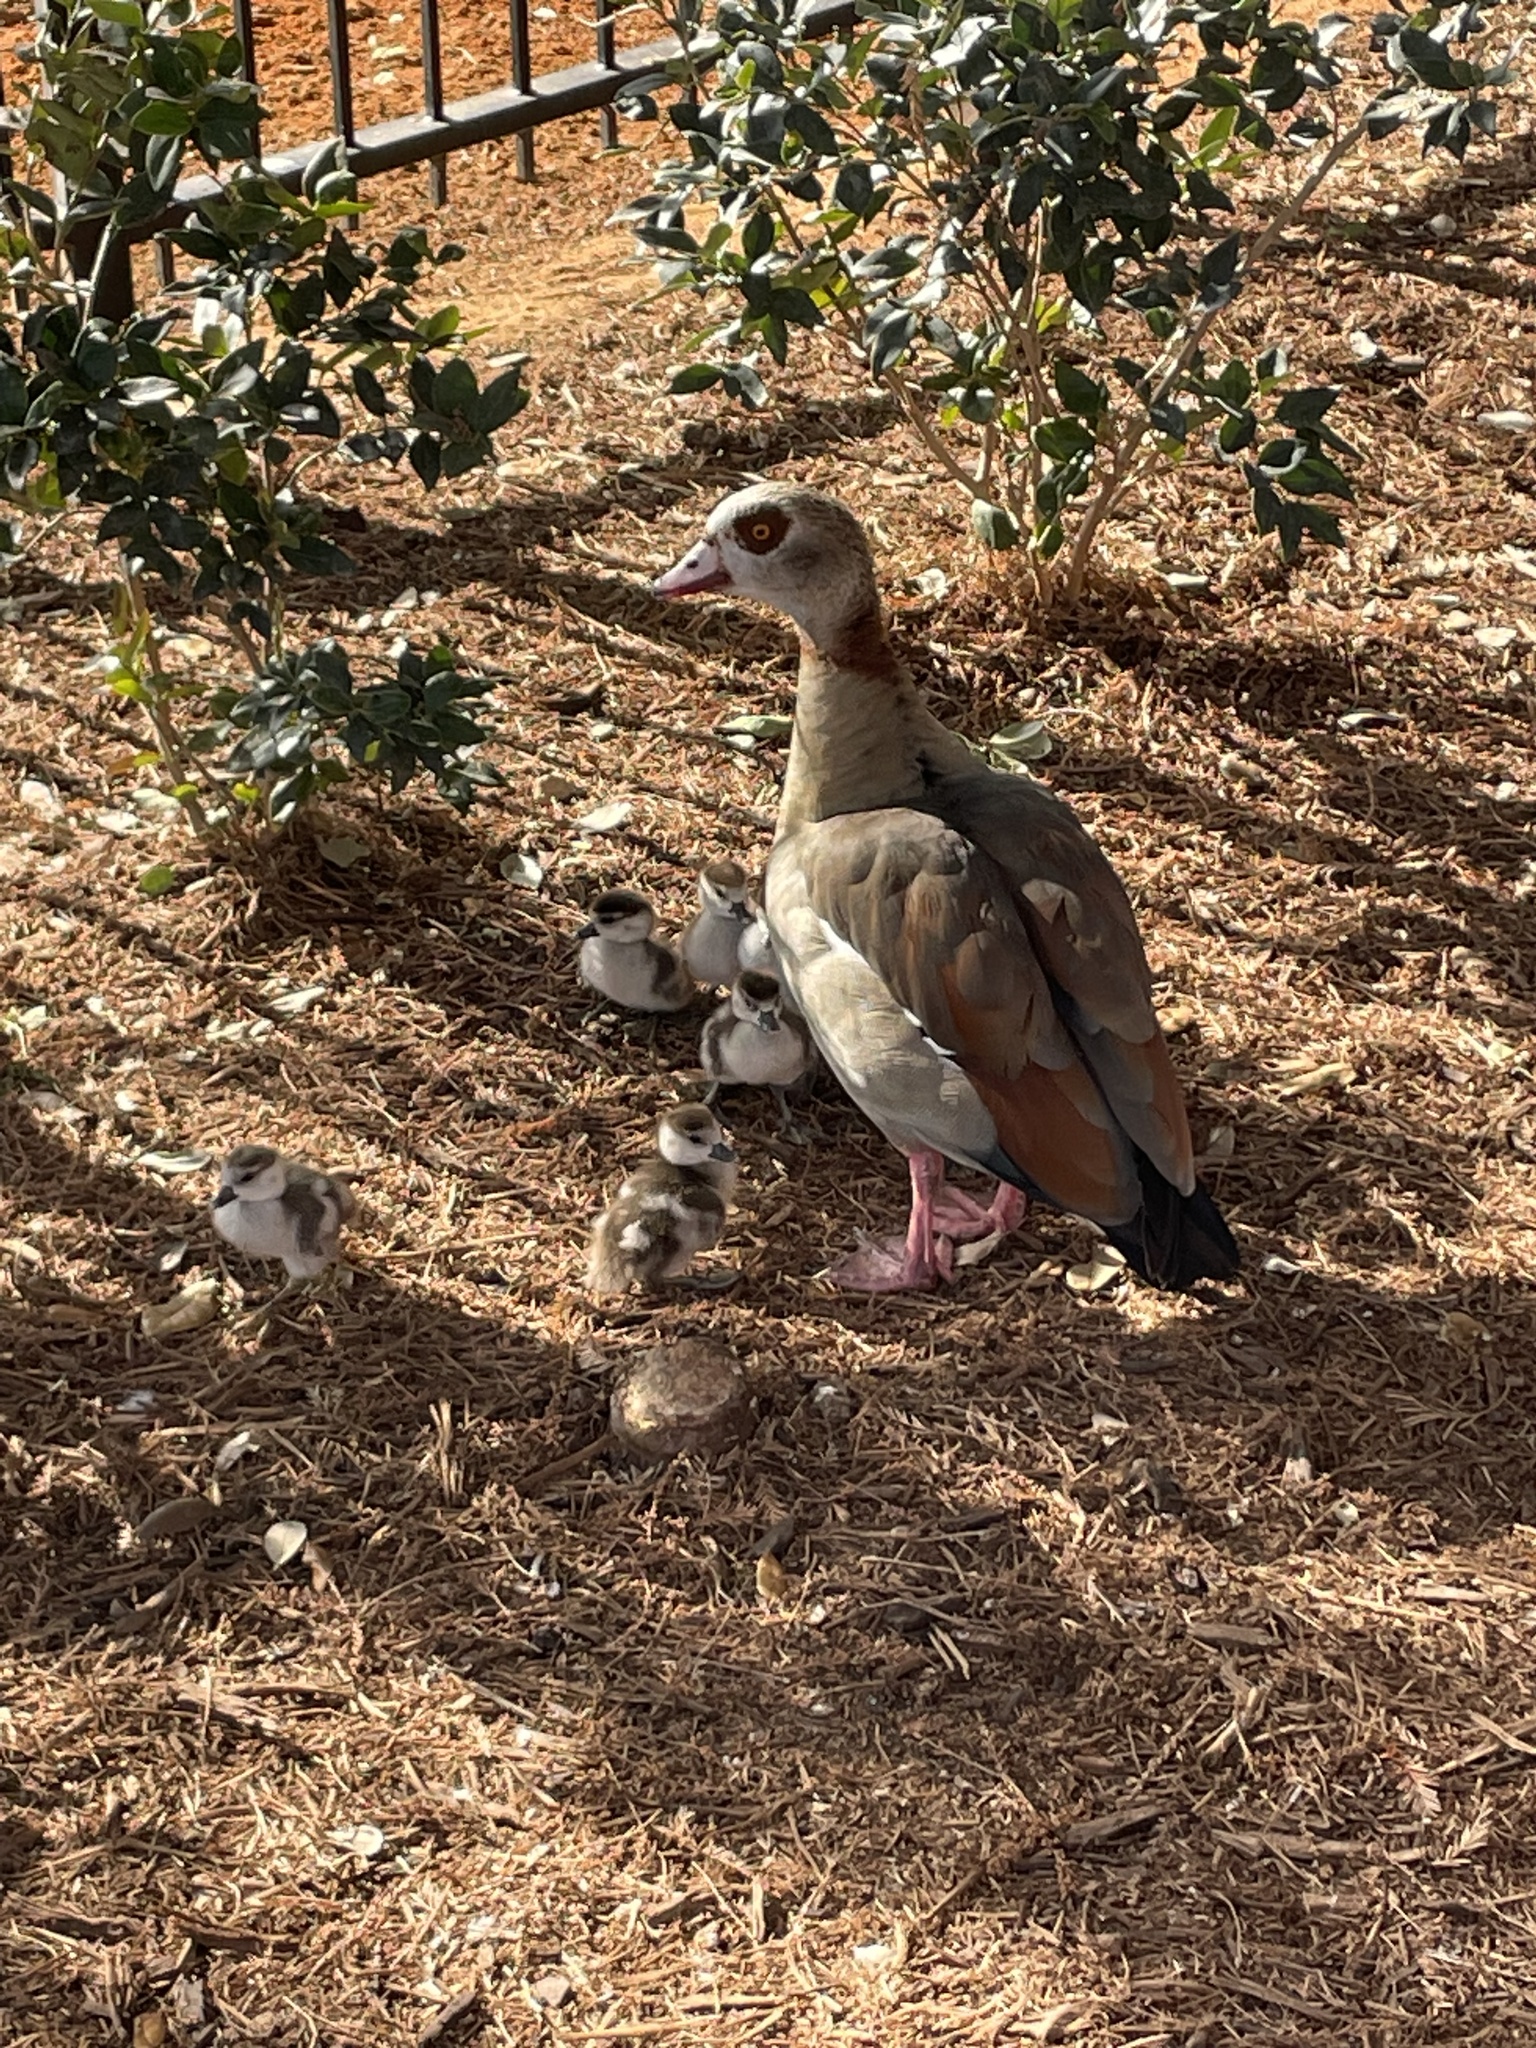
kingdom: Animalia
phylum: Chordata
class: Aves
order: Anseriformes
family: Anatidae
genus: Alopochen
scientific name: Alopochen aegyptiaca
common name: Egyptian goose
